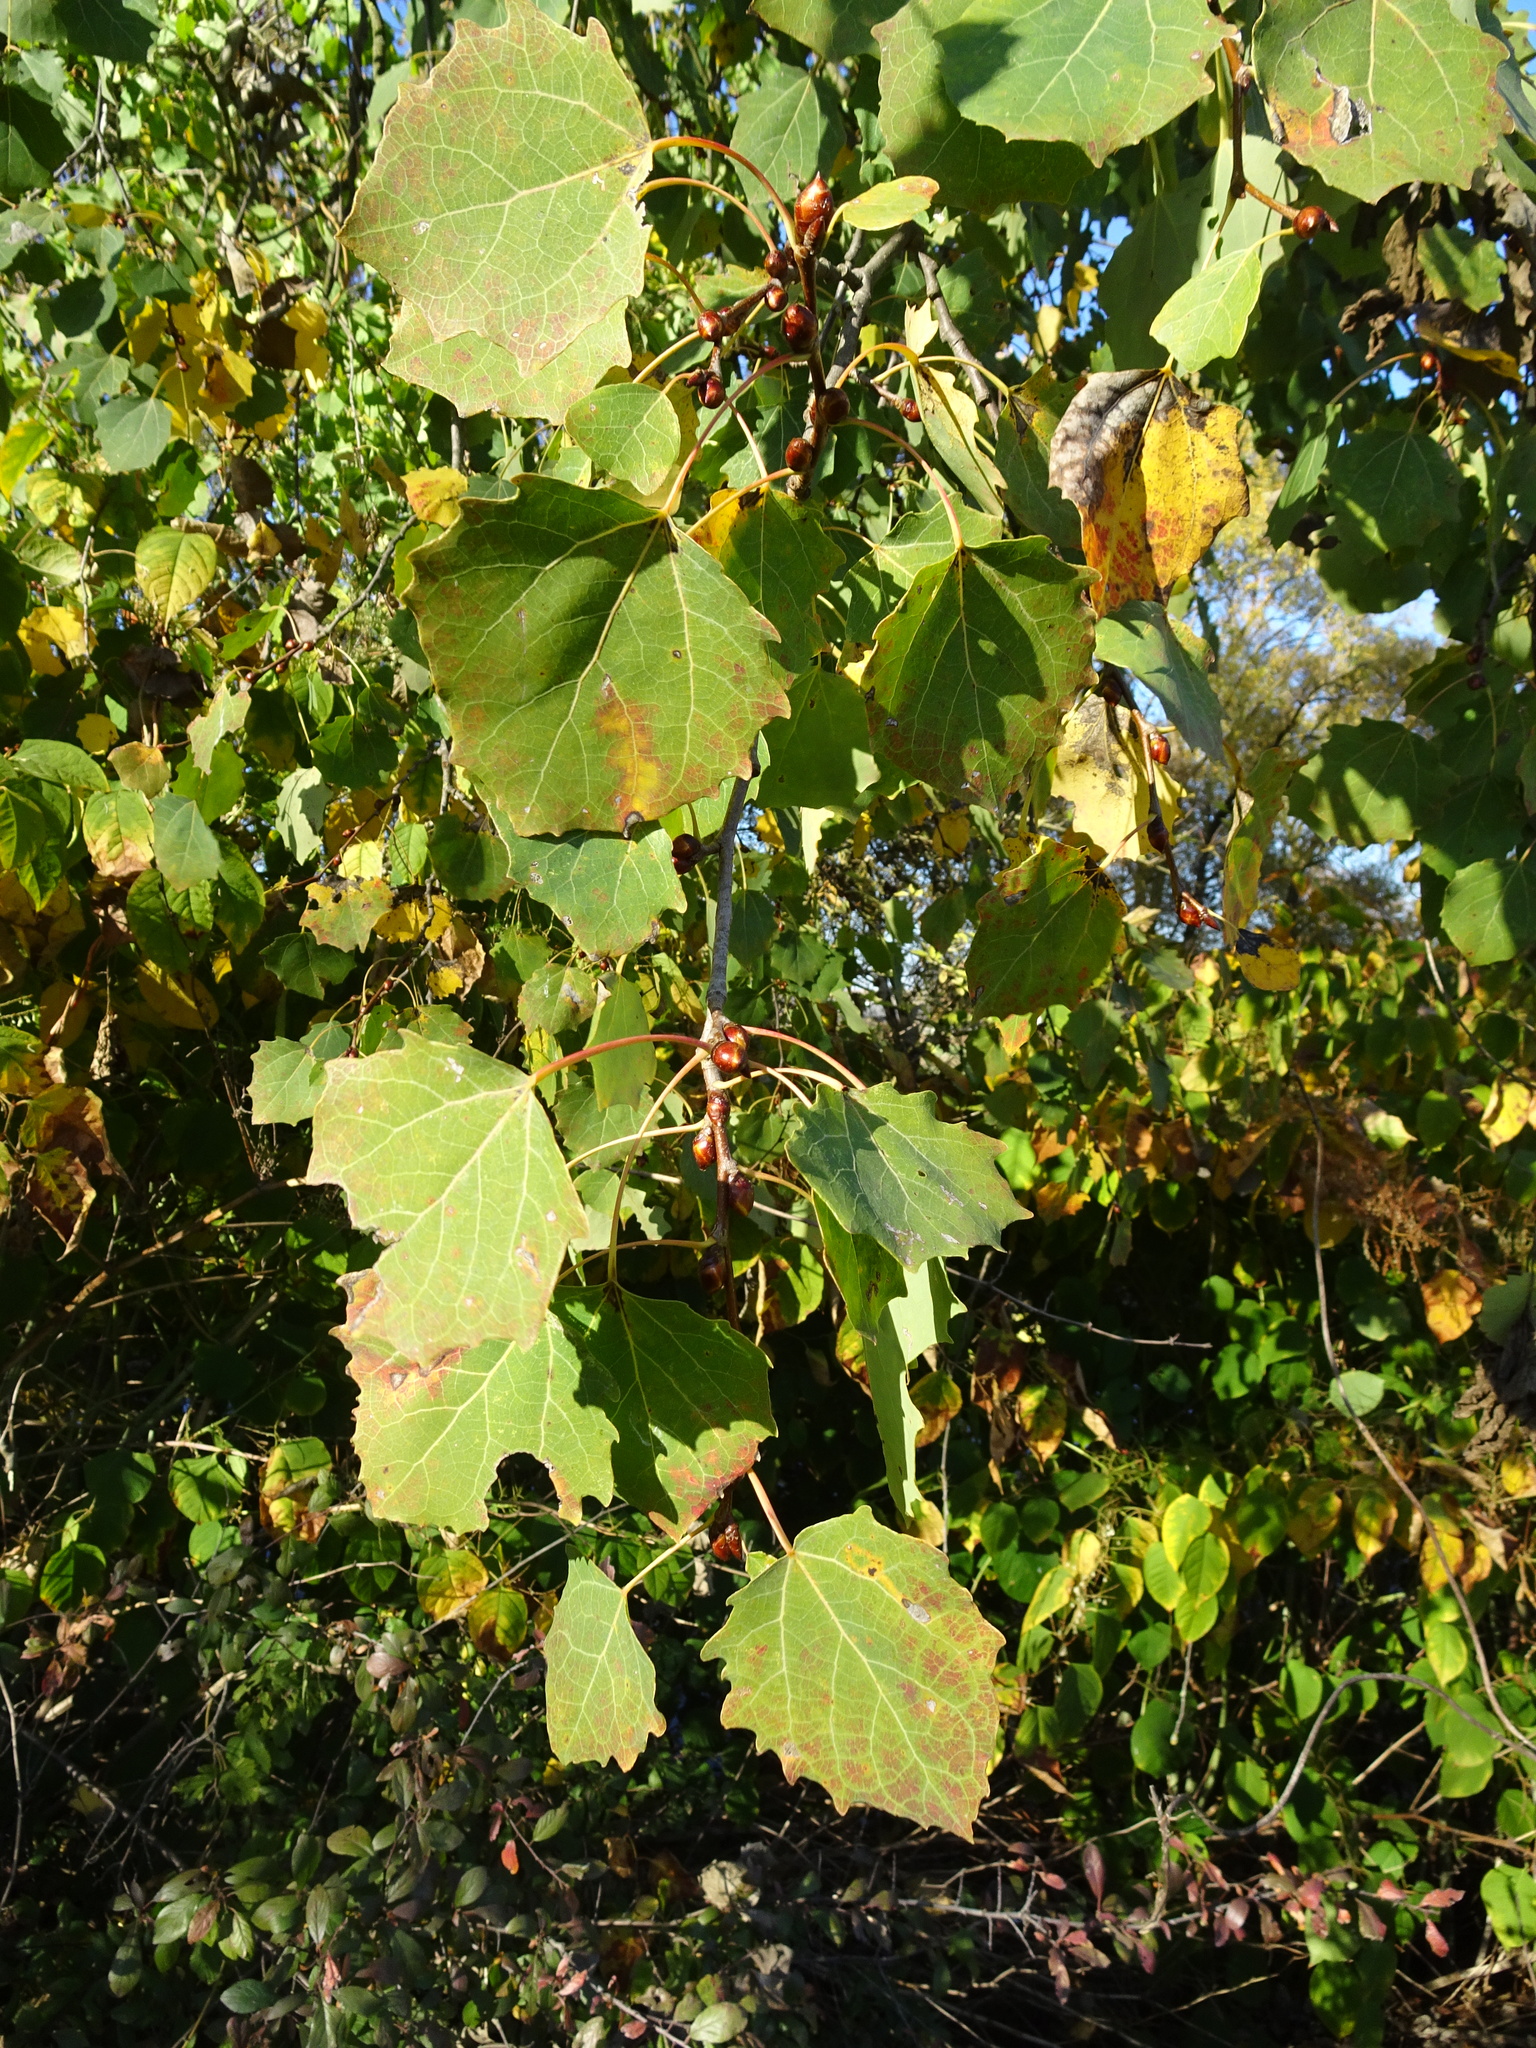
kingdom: Plantae
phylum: Tracheophyta
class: Magnoliopsida
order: Malpighiales
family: Salicaceae
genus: Populus
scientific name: Populus tremula
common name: European aspen
